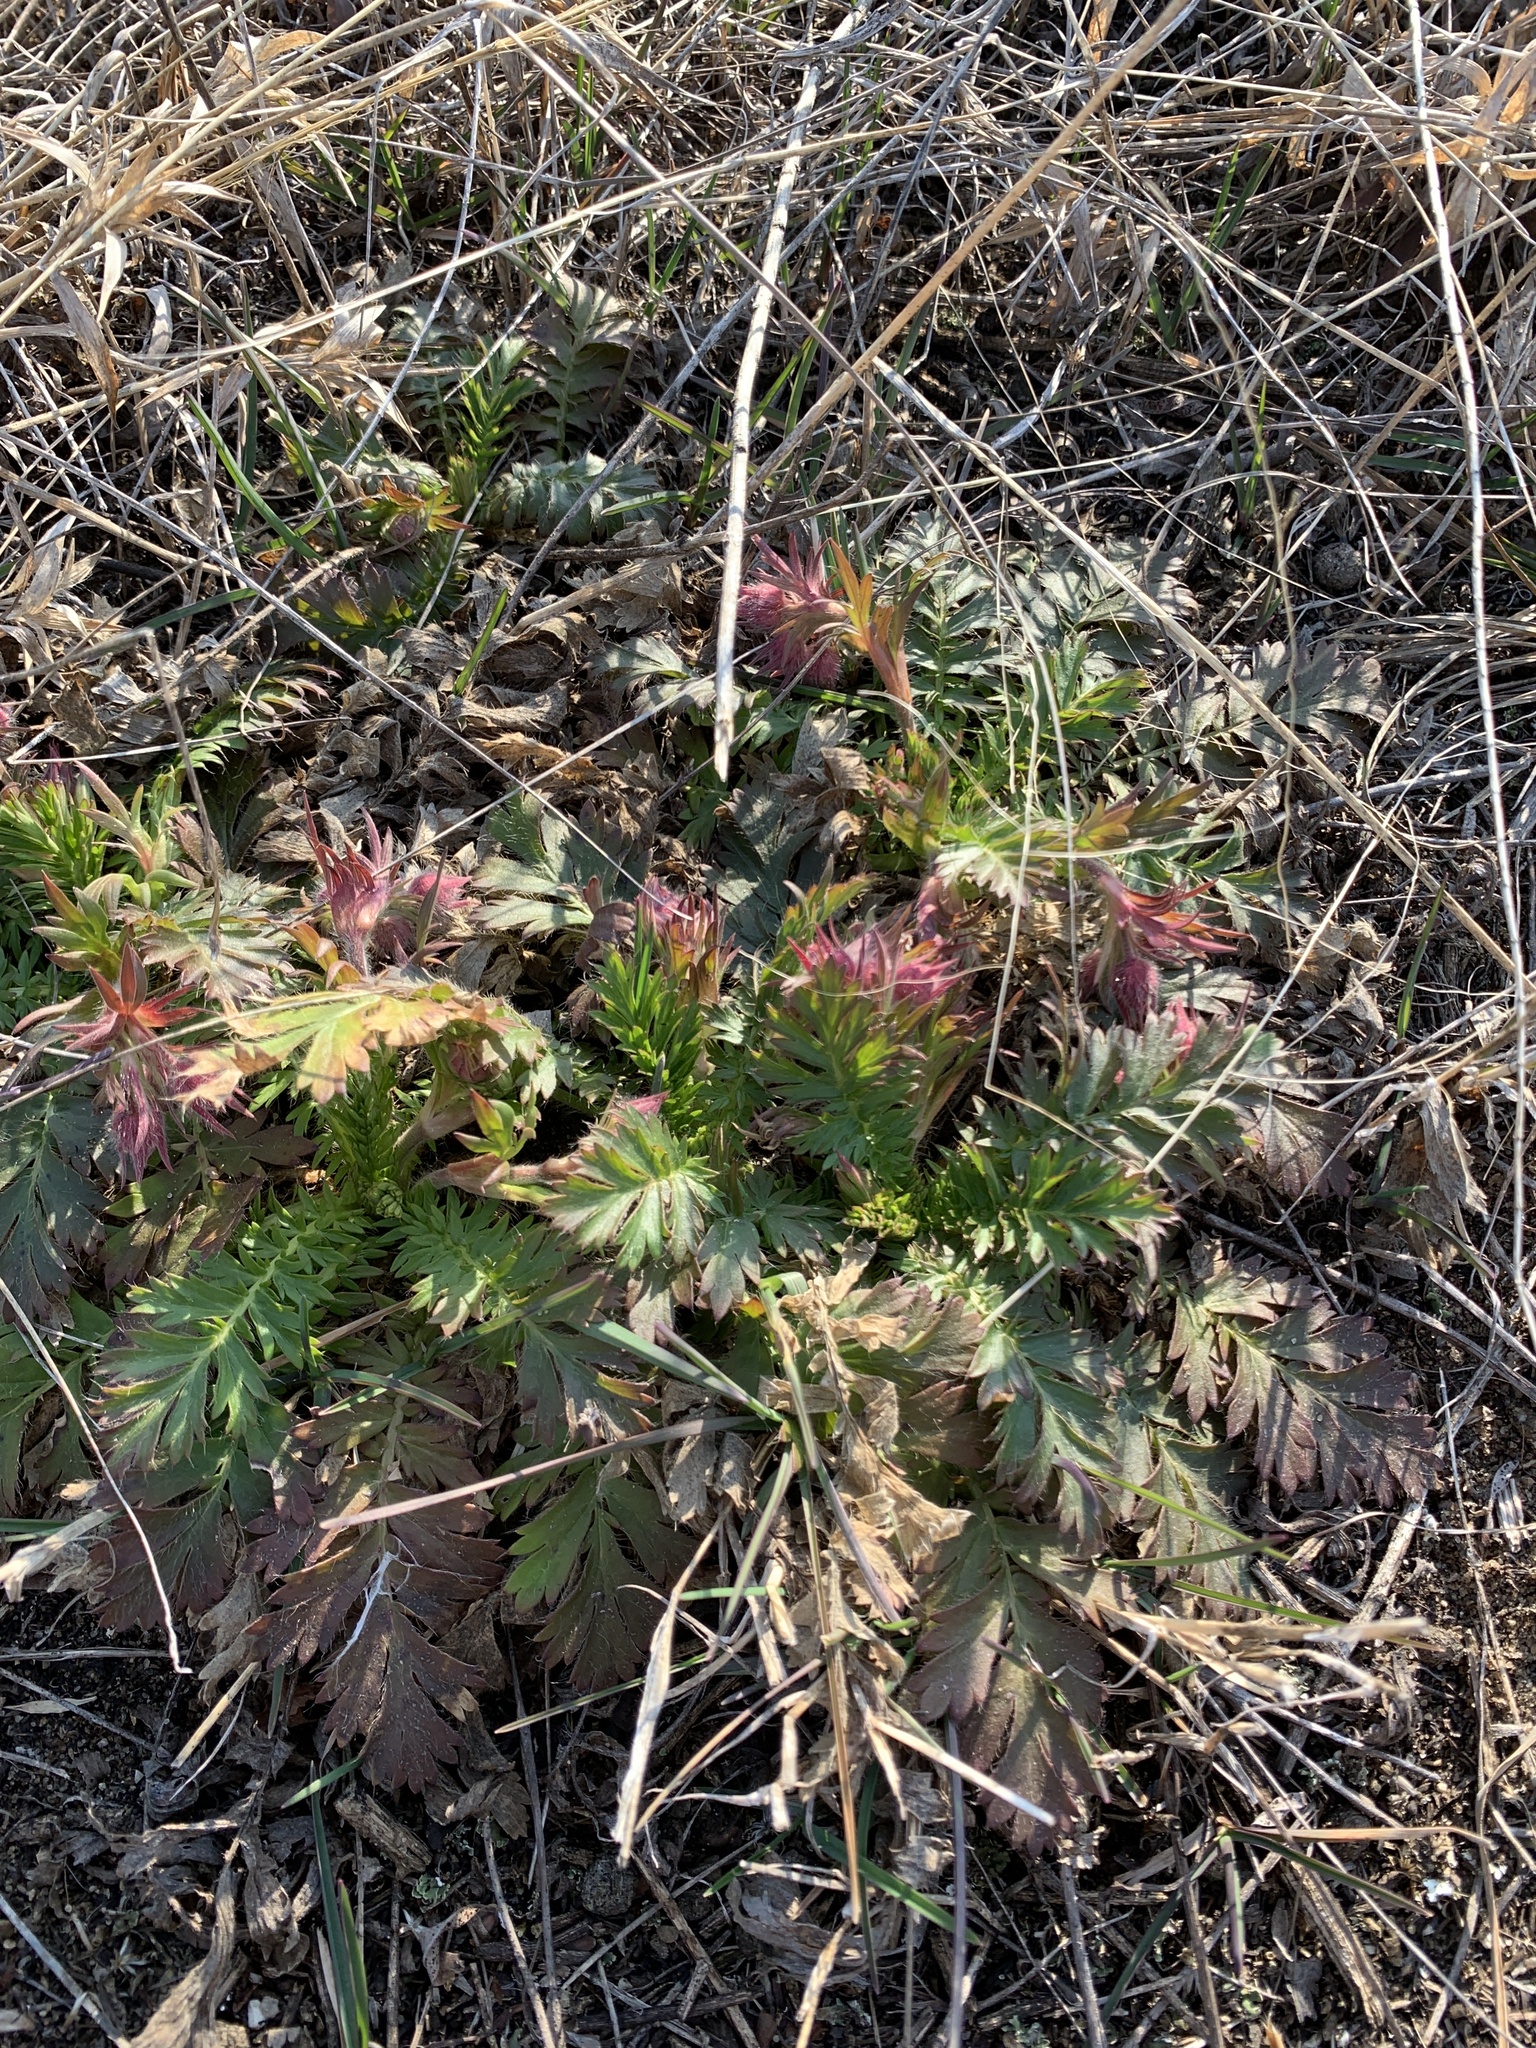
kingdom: Plantae
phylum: Tracheophyta
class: Magnoliopsida
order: Rosales
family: Rosaceae
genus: Geum
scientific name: Geum triflorum
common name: Old man's whiskers
